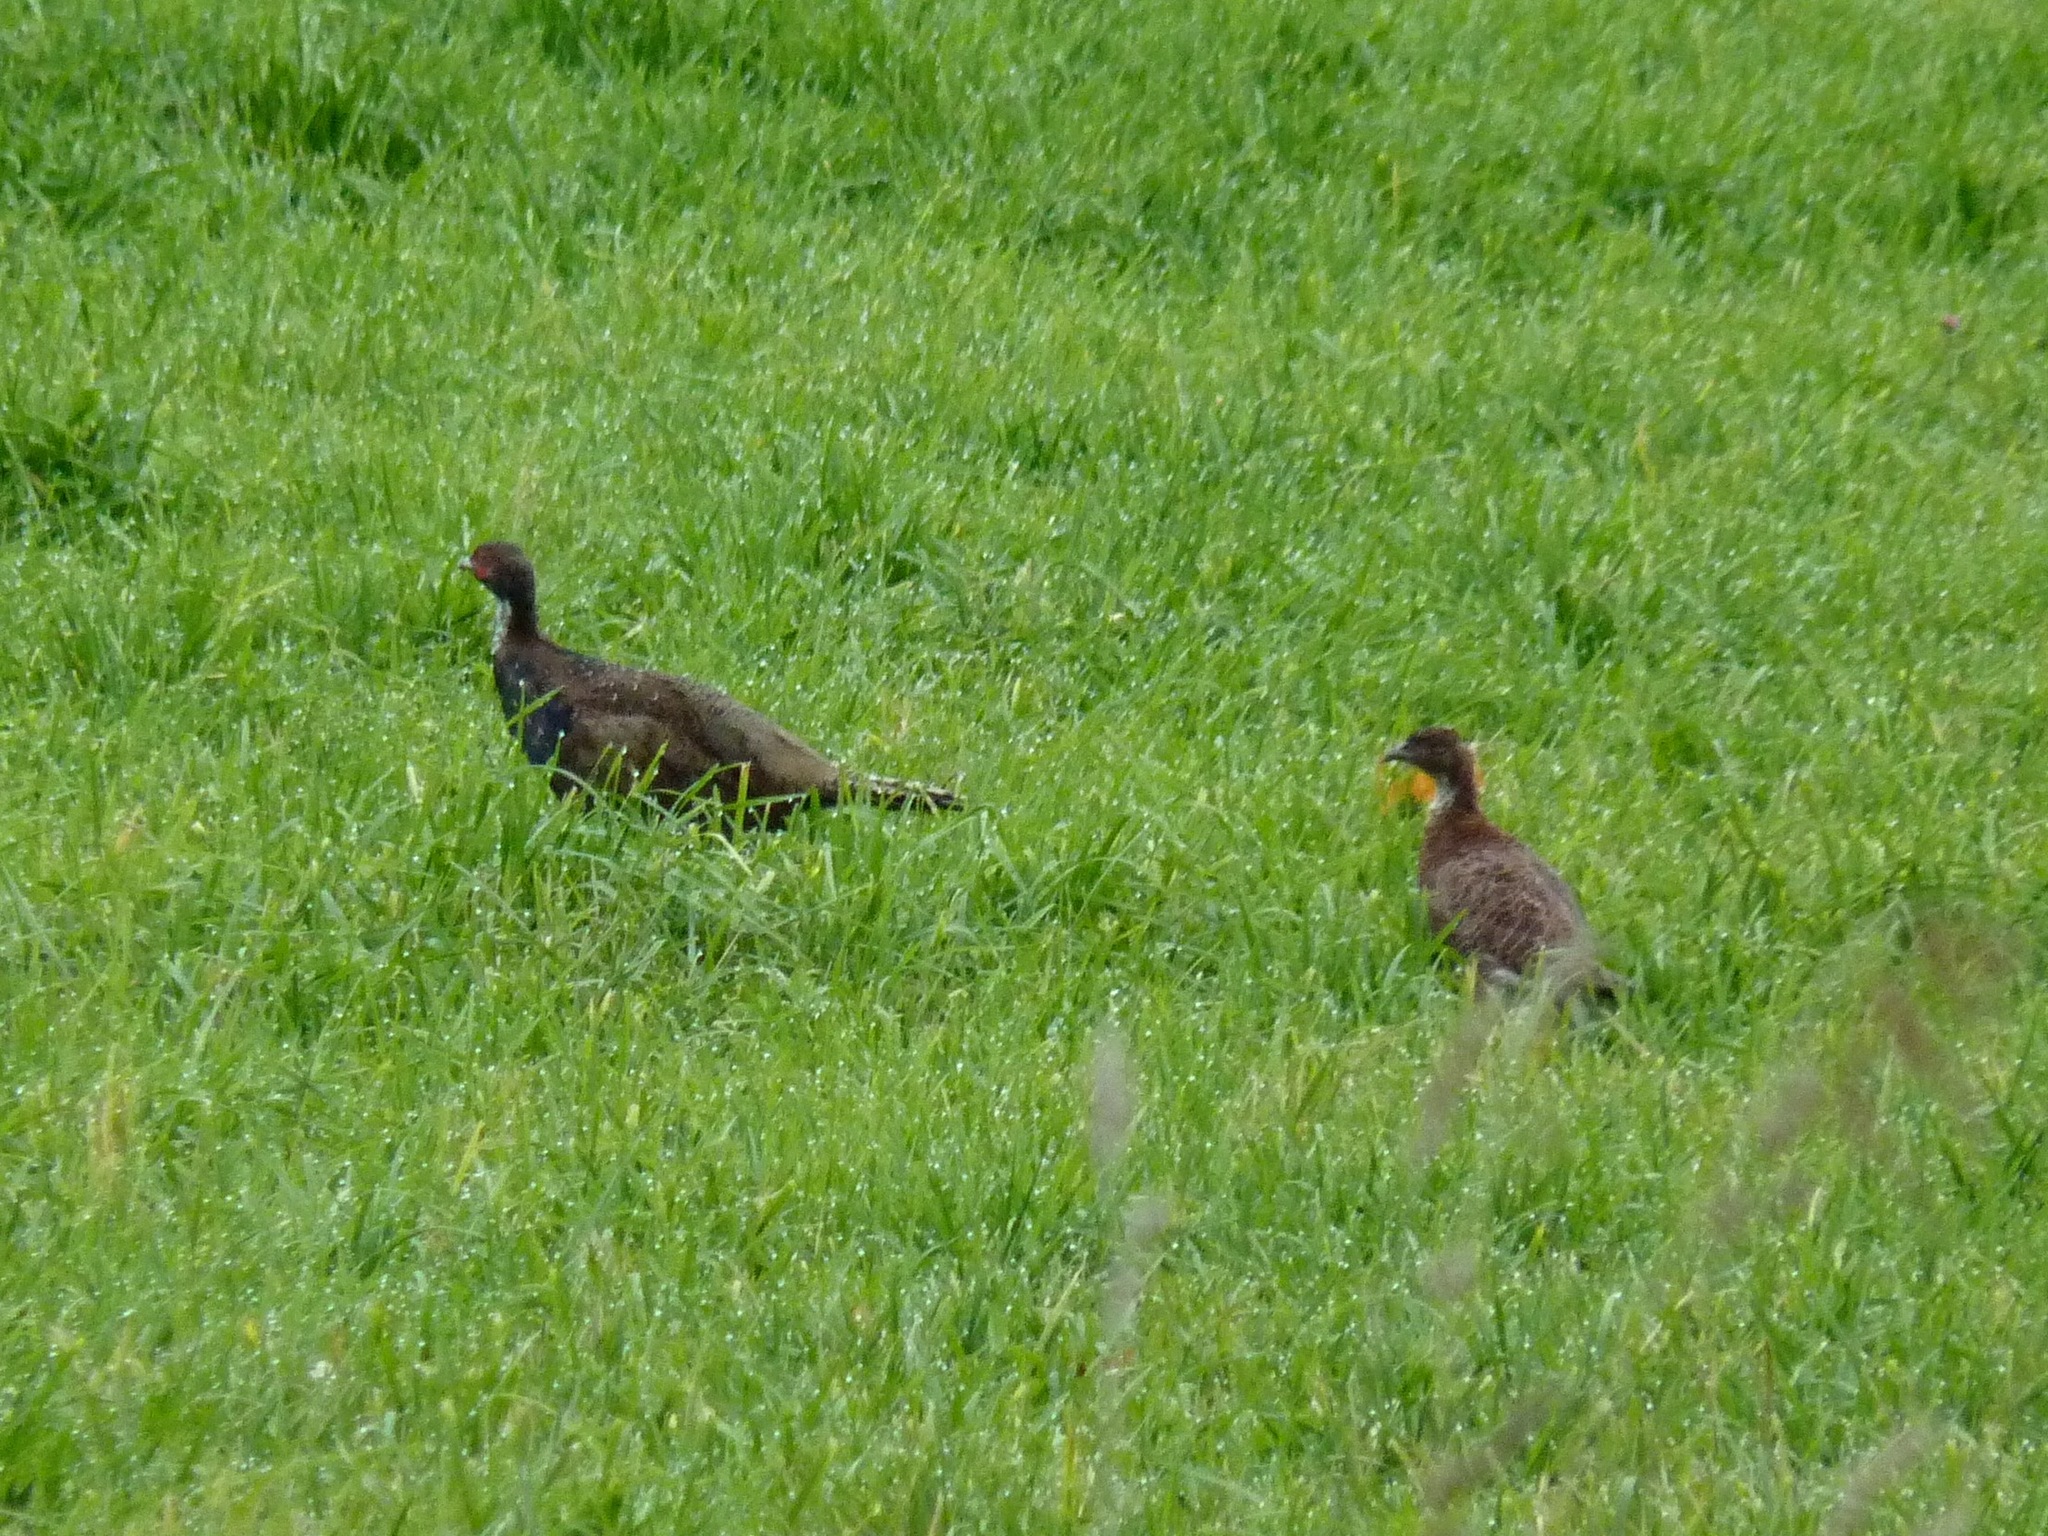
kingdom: Animalia
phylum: Chordata
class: Aves
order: Galliformes
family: Phasianidae
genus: Phasianus
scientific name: Phasianus colchicus
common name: Common pheasant
